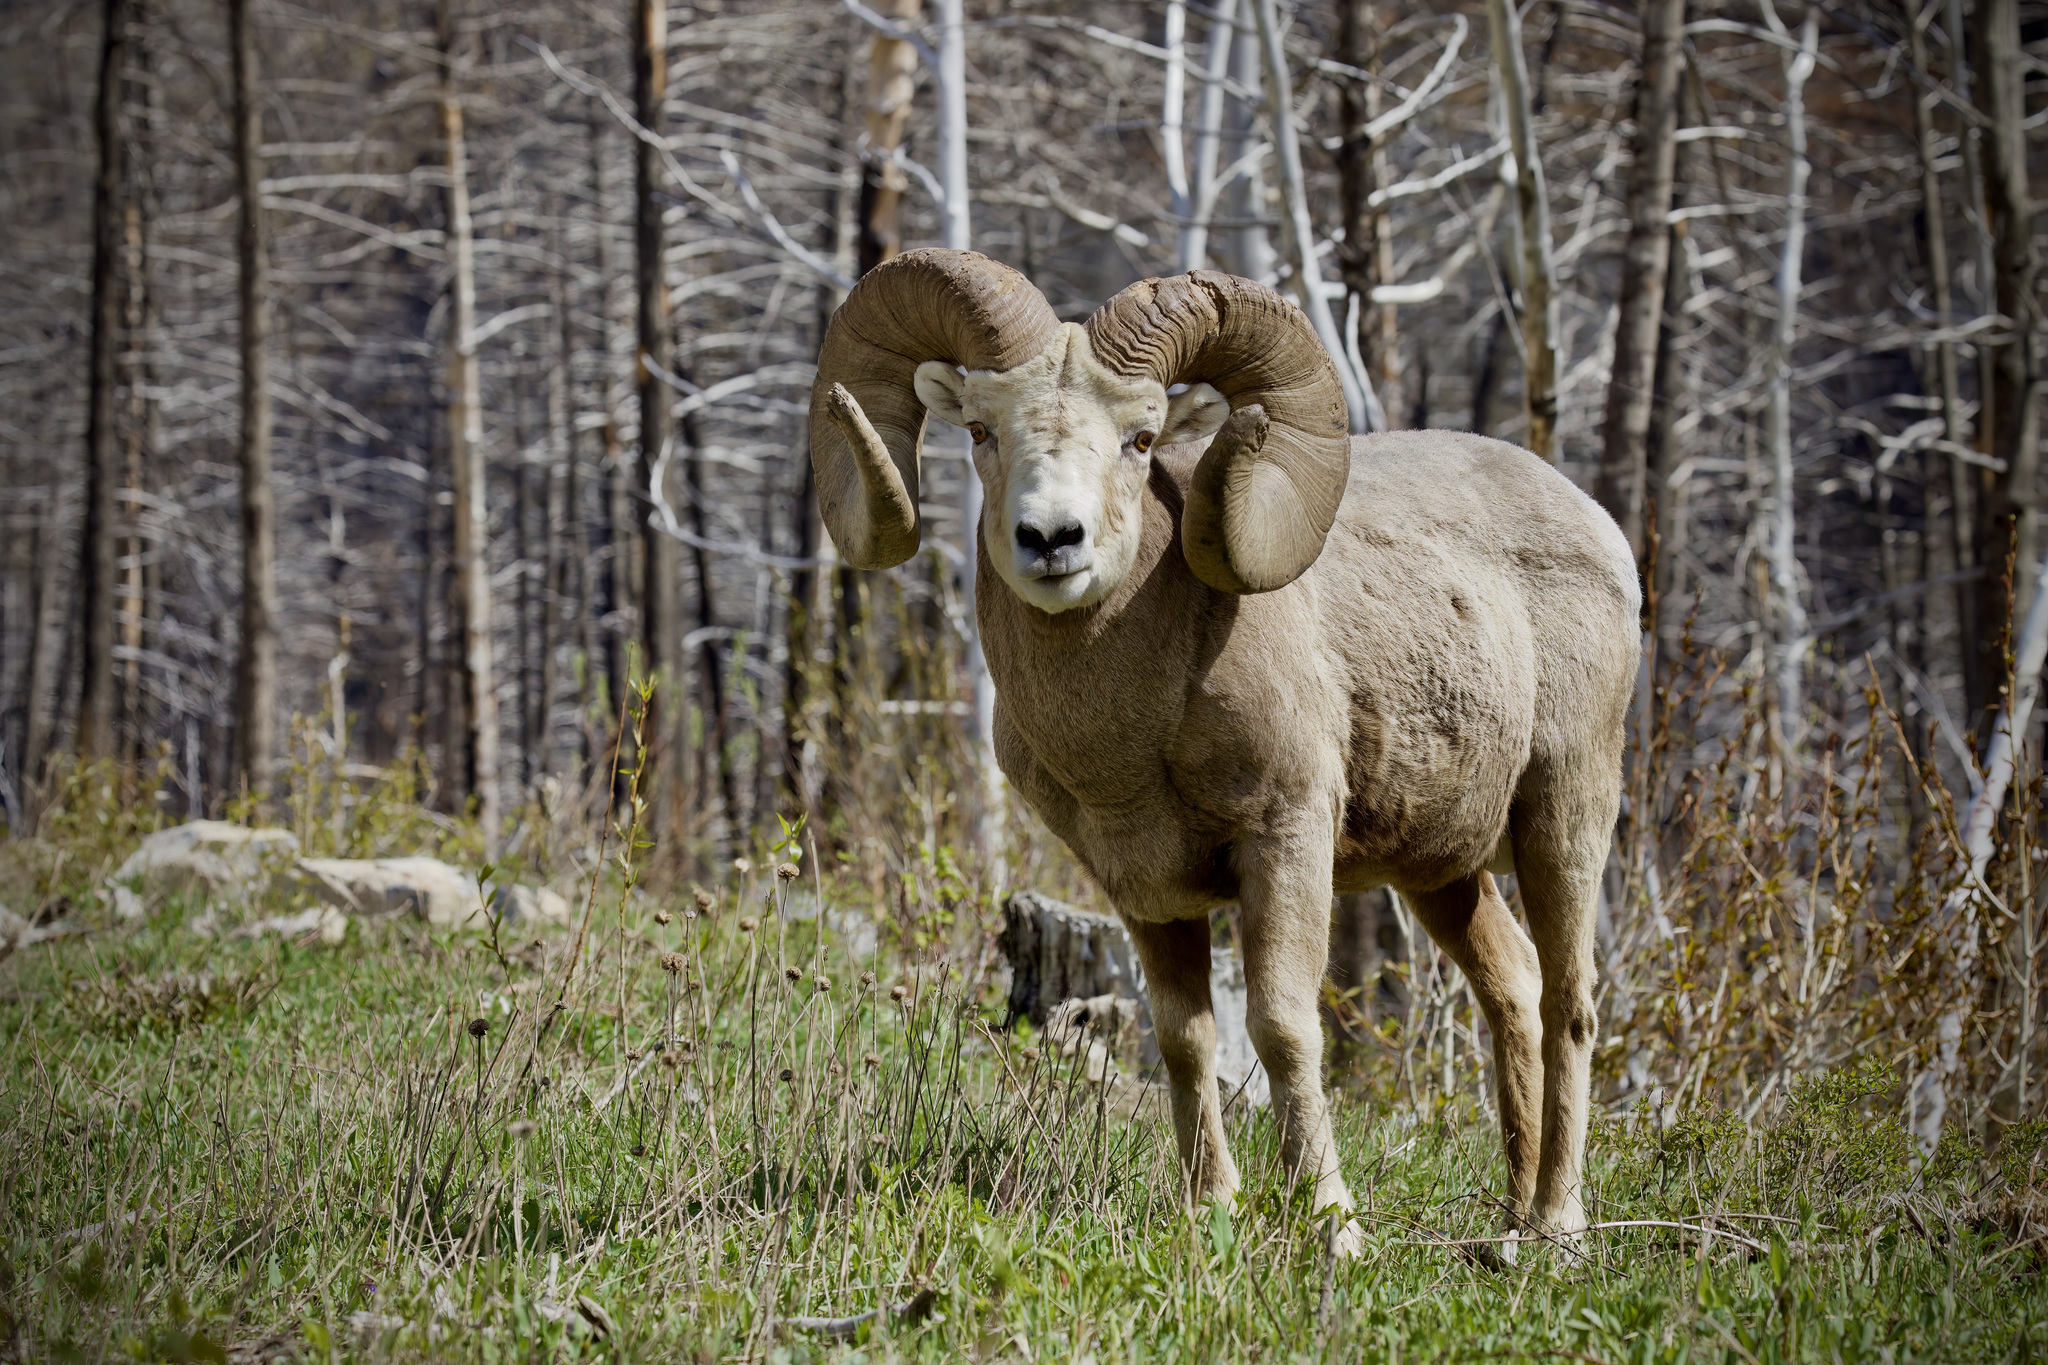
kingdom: Animalia
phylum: Chordata
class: Mammalia
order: Artiodactyla
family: Bovidae
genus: Ovis
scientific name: Ovis canadensis
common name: Bighorn sheep
